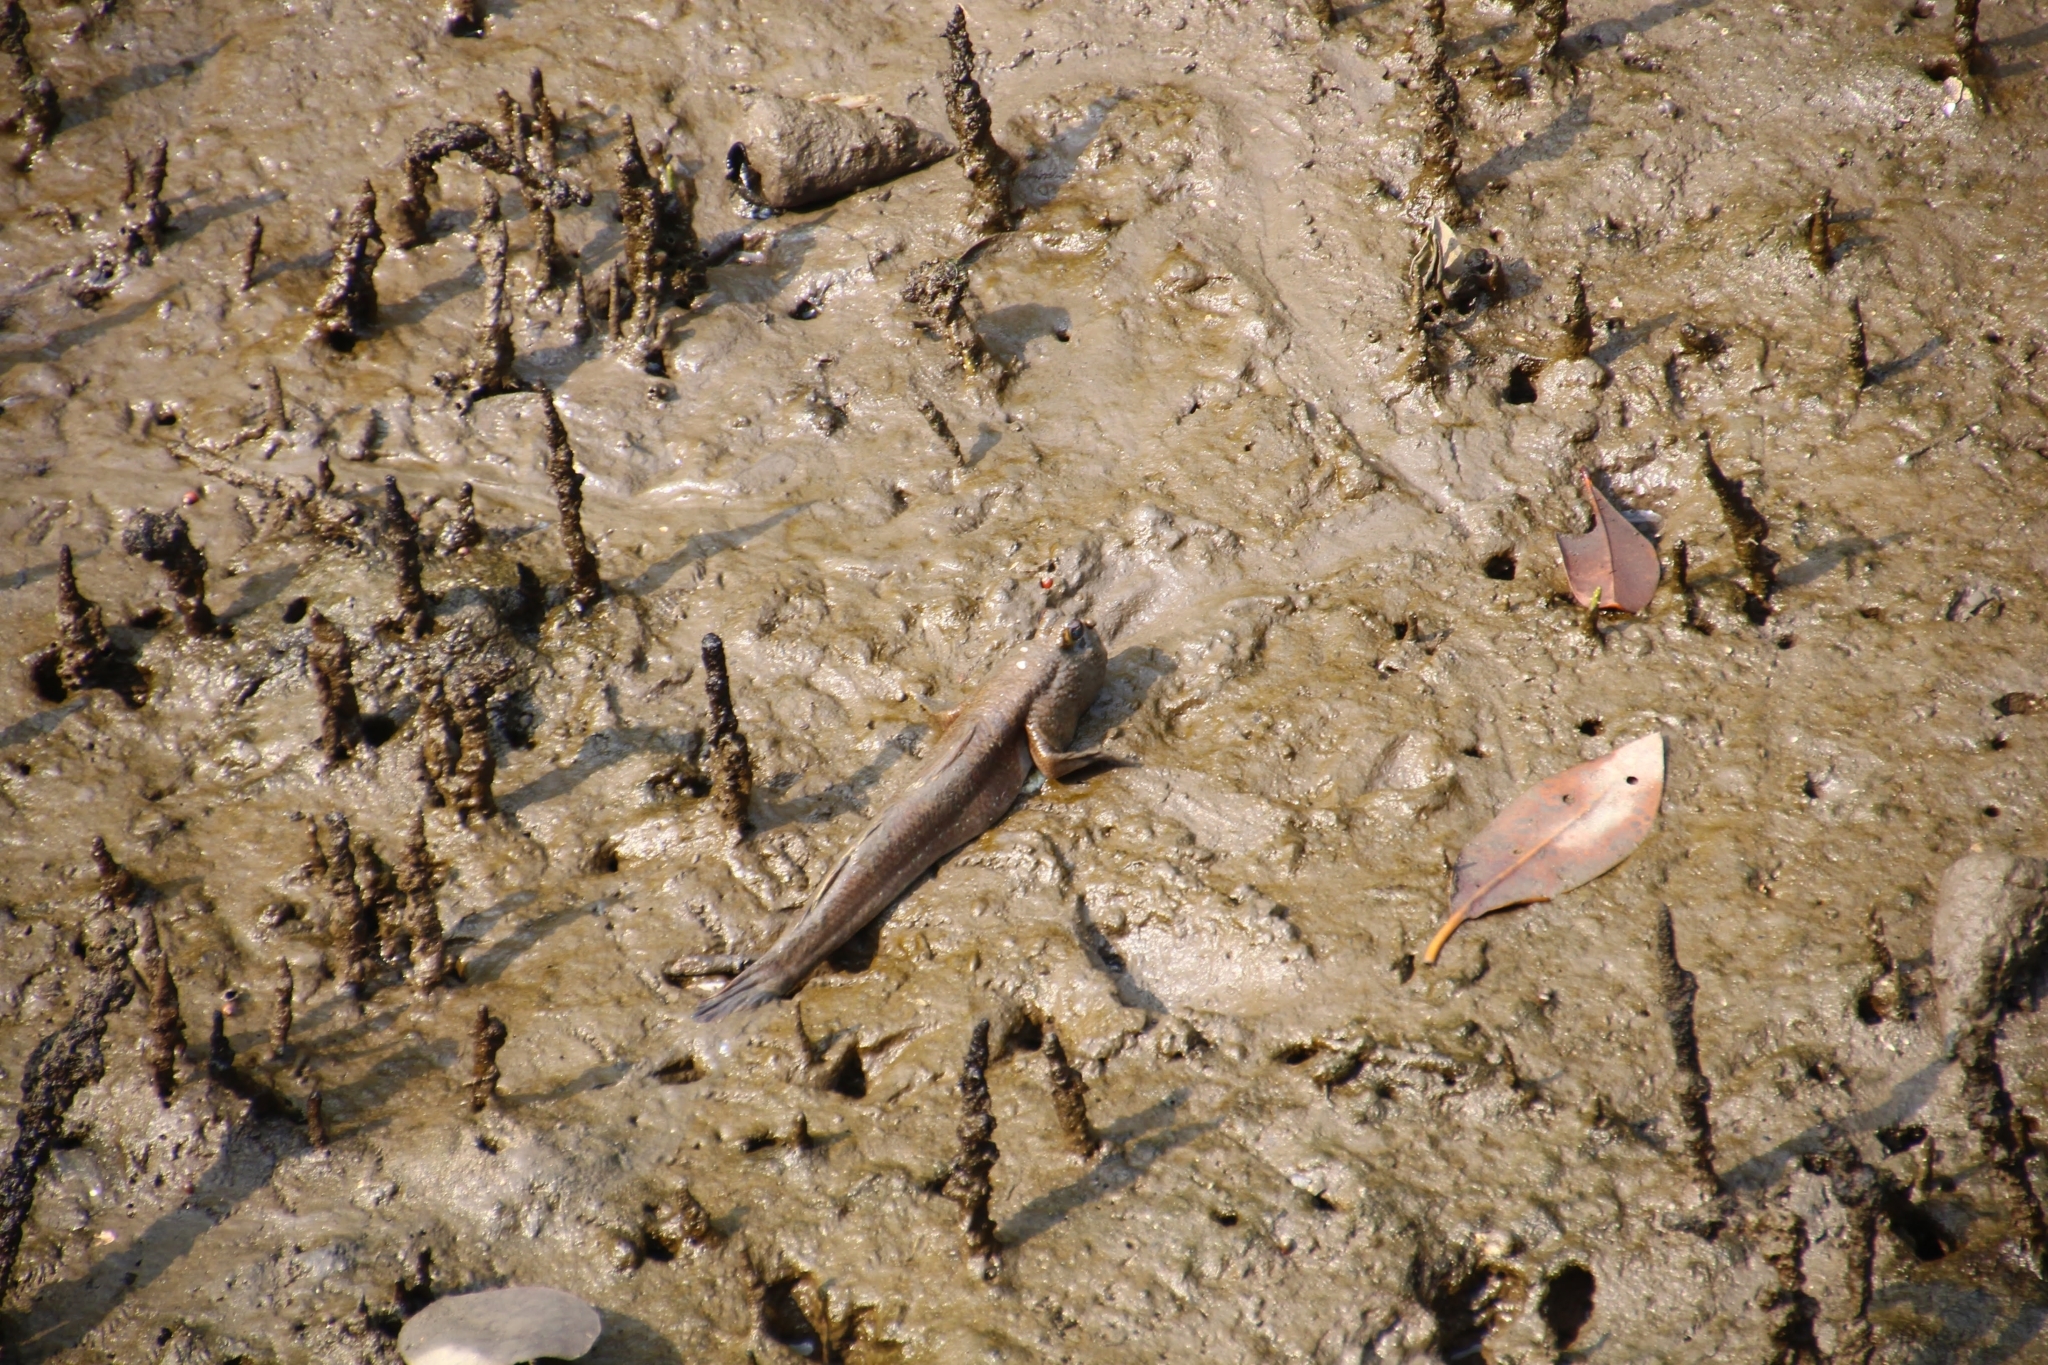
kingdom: Animalia
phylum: Chordata
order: Perciformes
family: Gobiidae
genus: Periophthalmodon
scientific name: Periophthalmodon schlosseri
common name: Giant mudskipper
